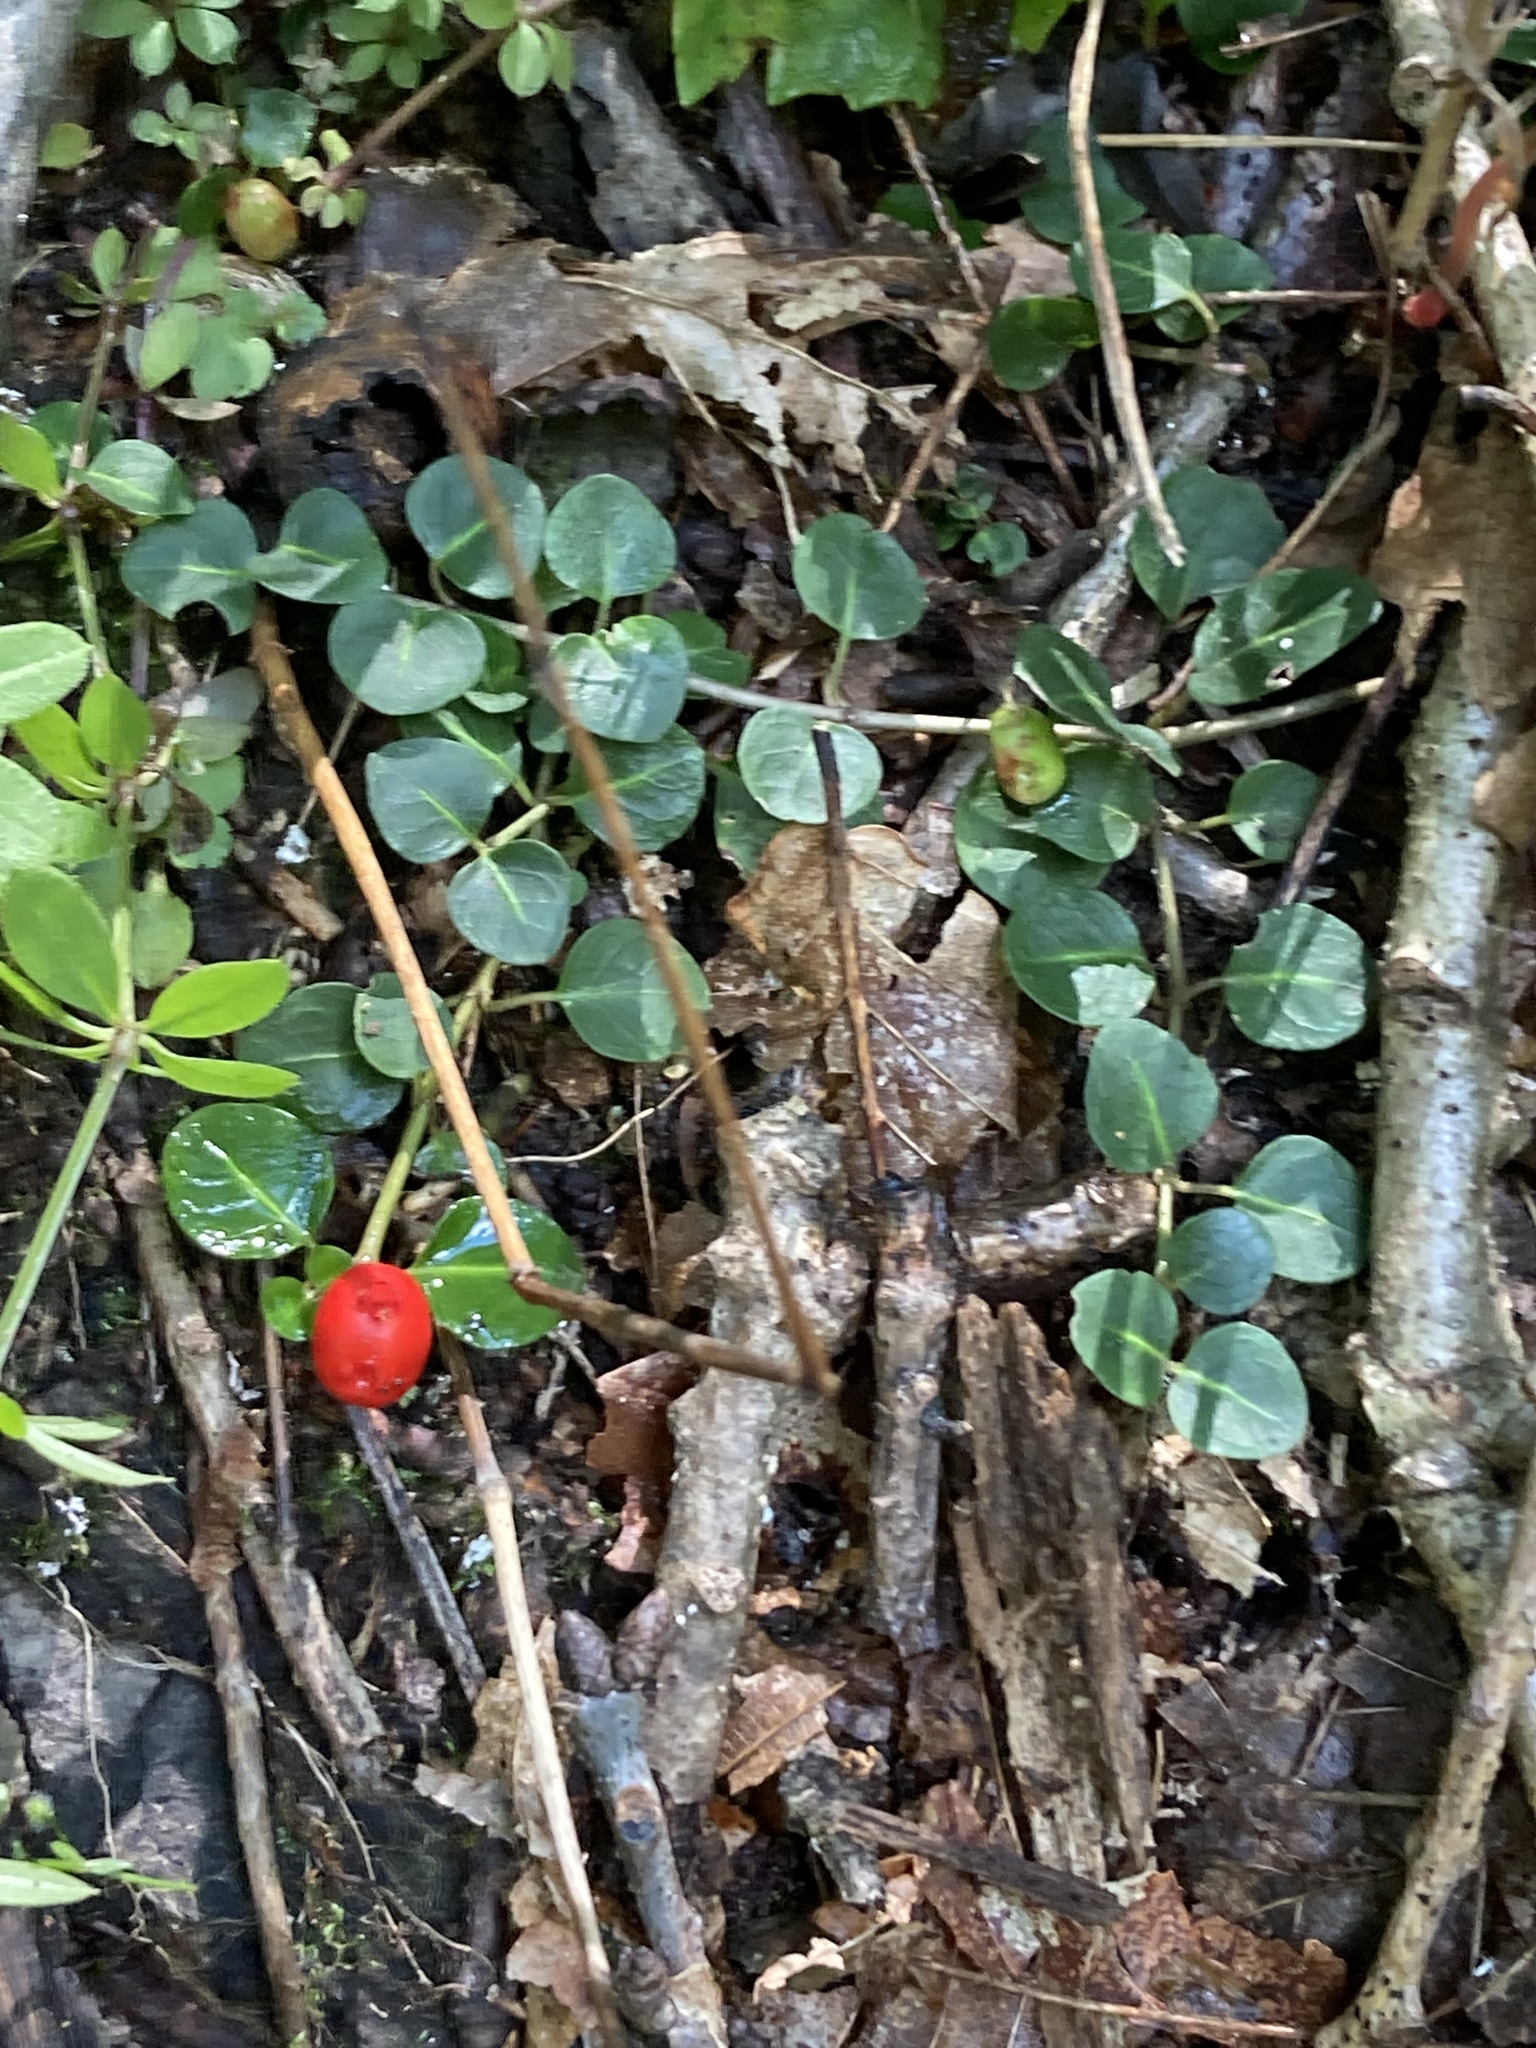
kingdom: Plantae
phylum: Tracheophyta
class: Magnoliopsida
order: Gentianales
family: Rubiaceae
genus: Mitchella
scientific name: Mitchella repens
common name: Partridge-berry
